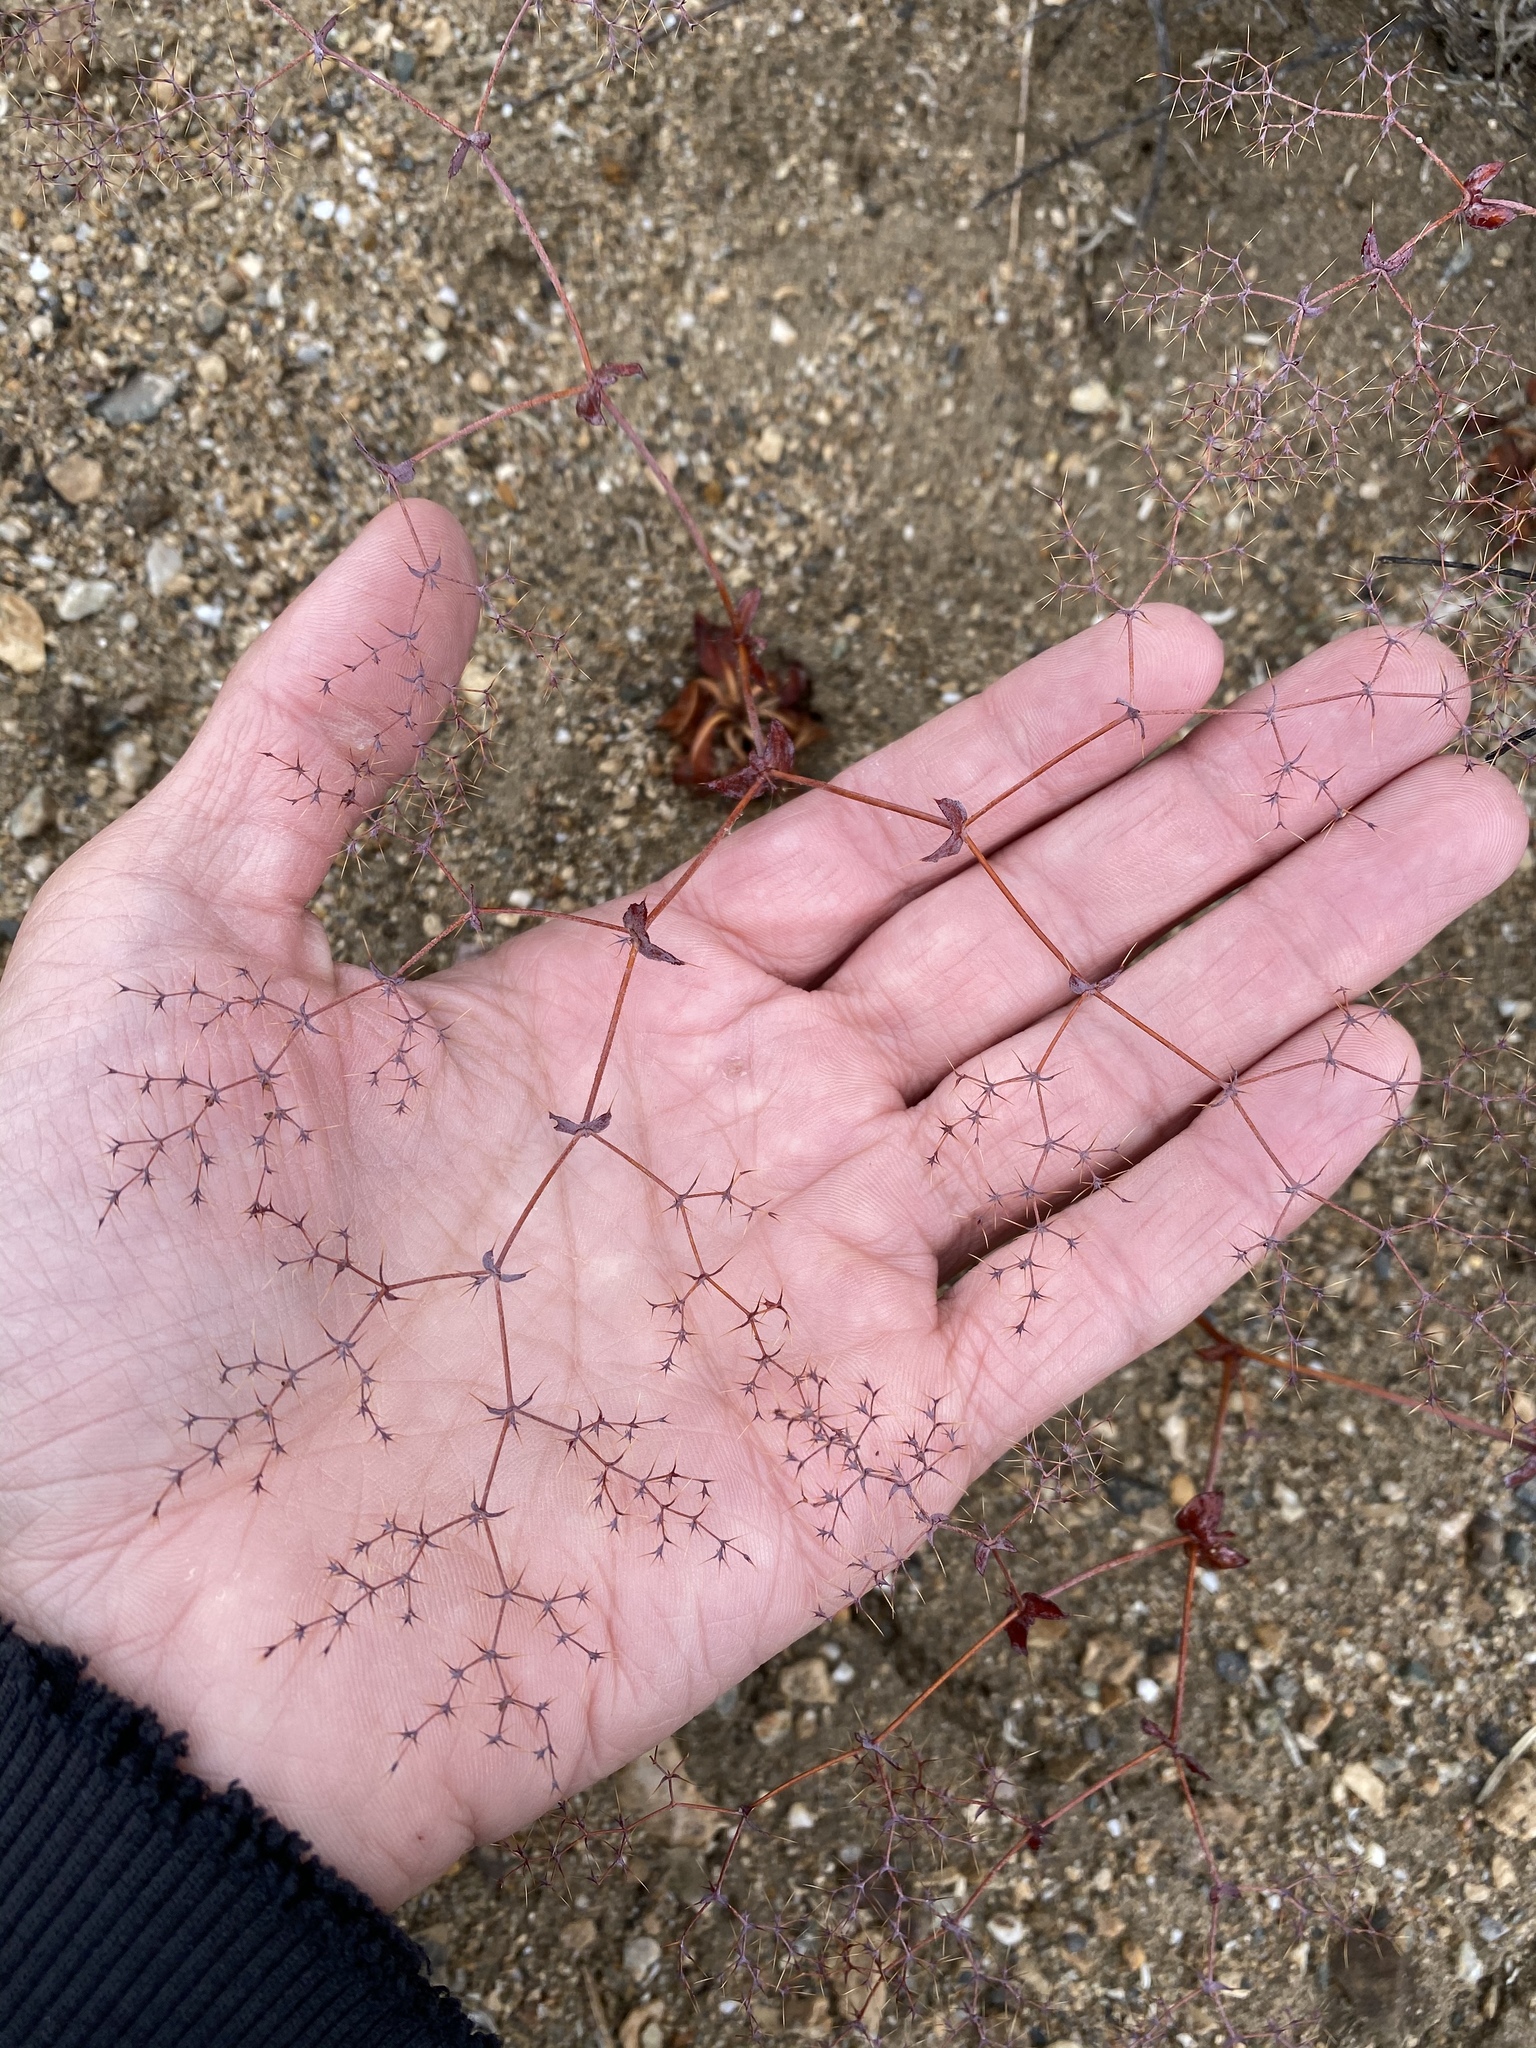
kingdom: Plantae
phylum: Tracheophyta
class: Magnoliopsida
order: Caryophyllales
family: Polygonaceae
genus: Oxytheca
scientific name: Oxytheca watsonii
